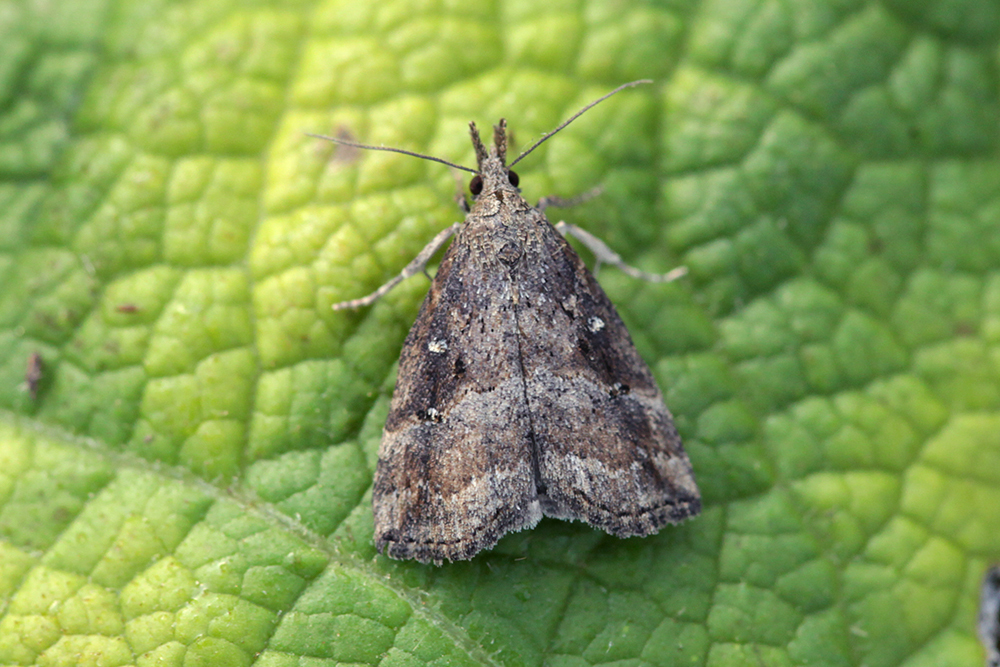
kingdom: Animalia
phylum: Arthropoda
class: Insecta
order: Lepidoptera
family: Erebidae
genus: Hypena
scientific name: Hypena rostralis
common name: Buttoned snout
